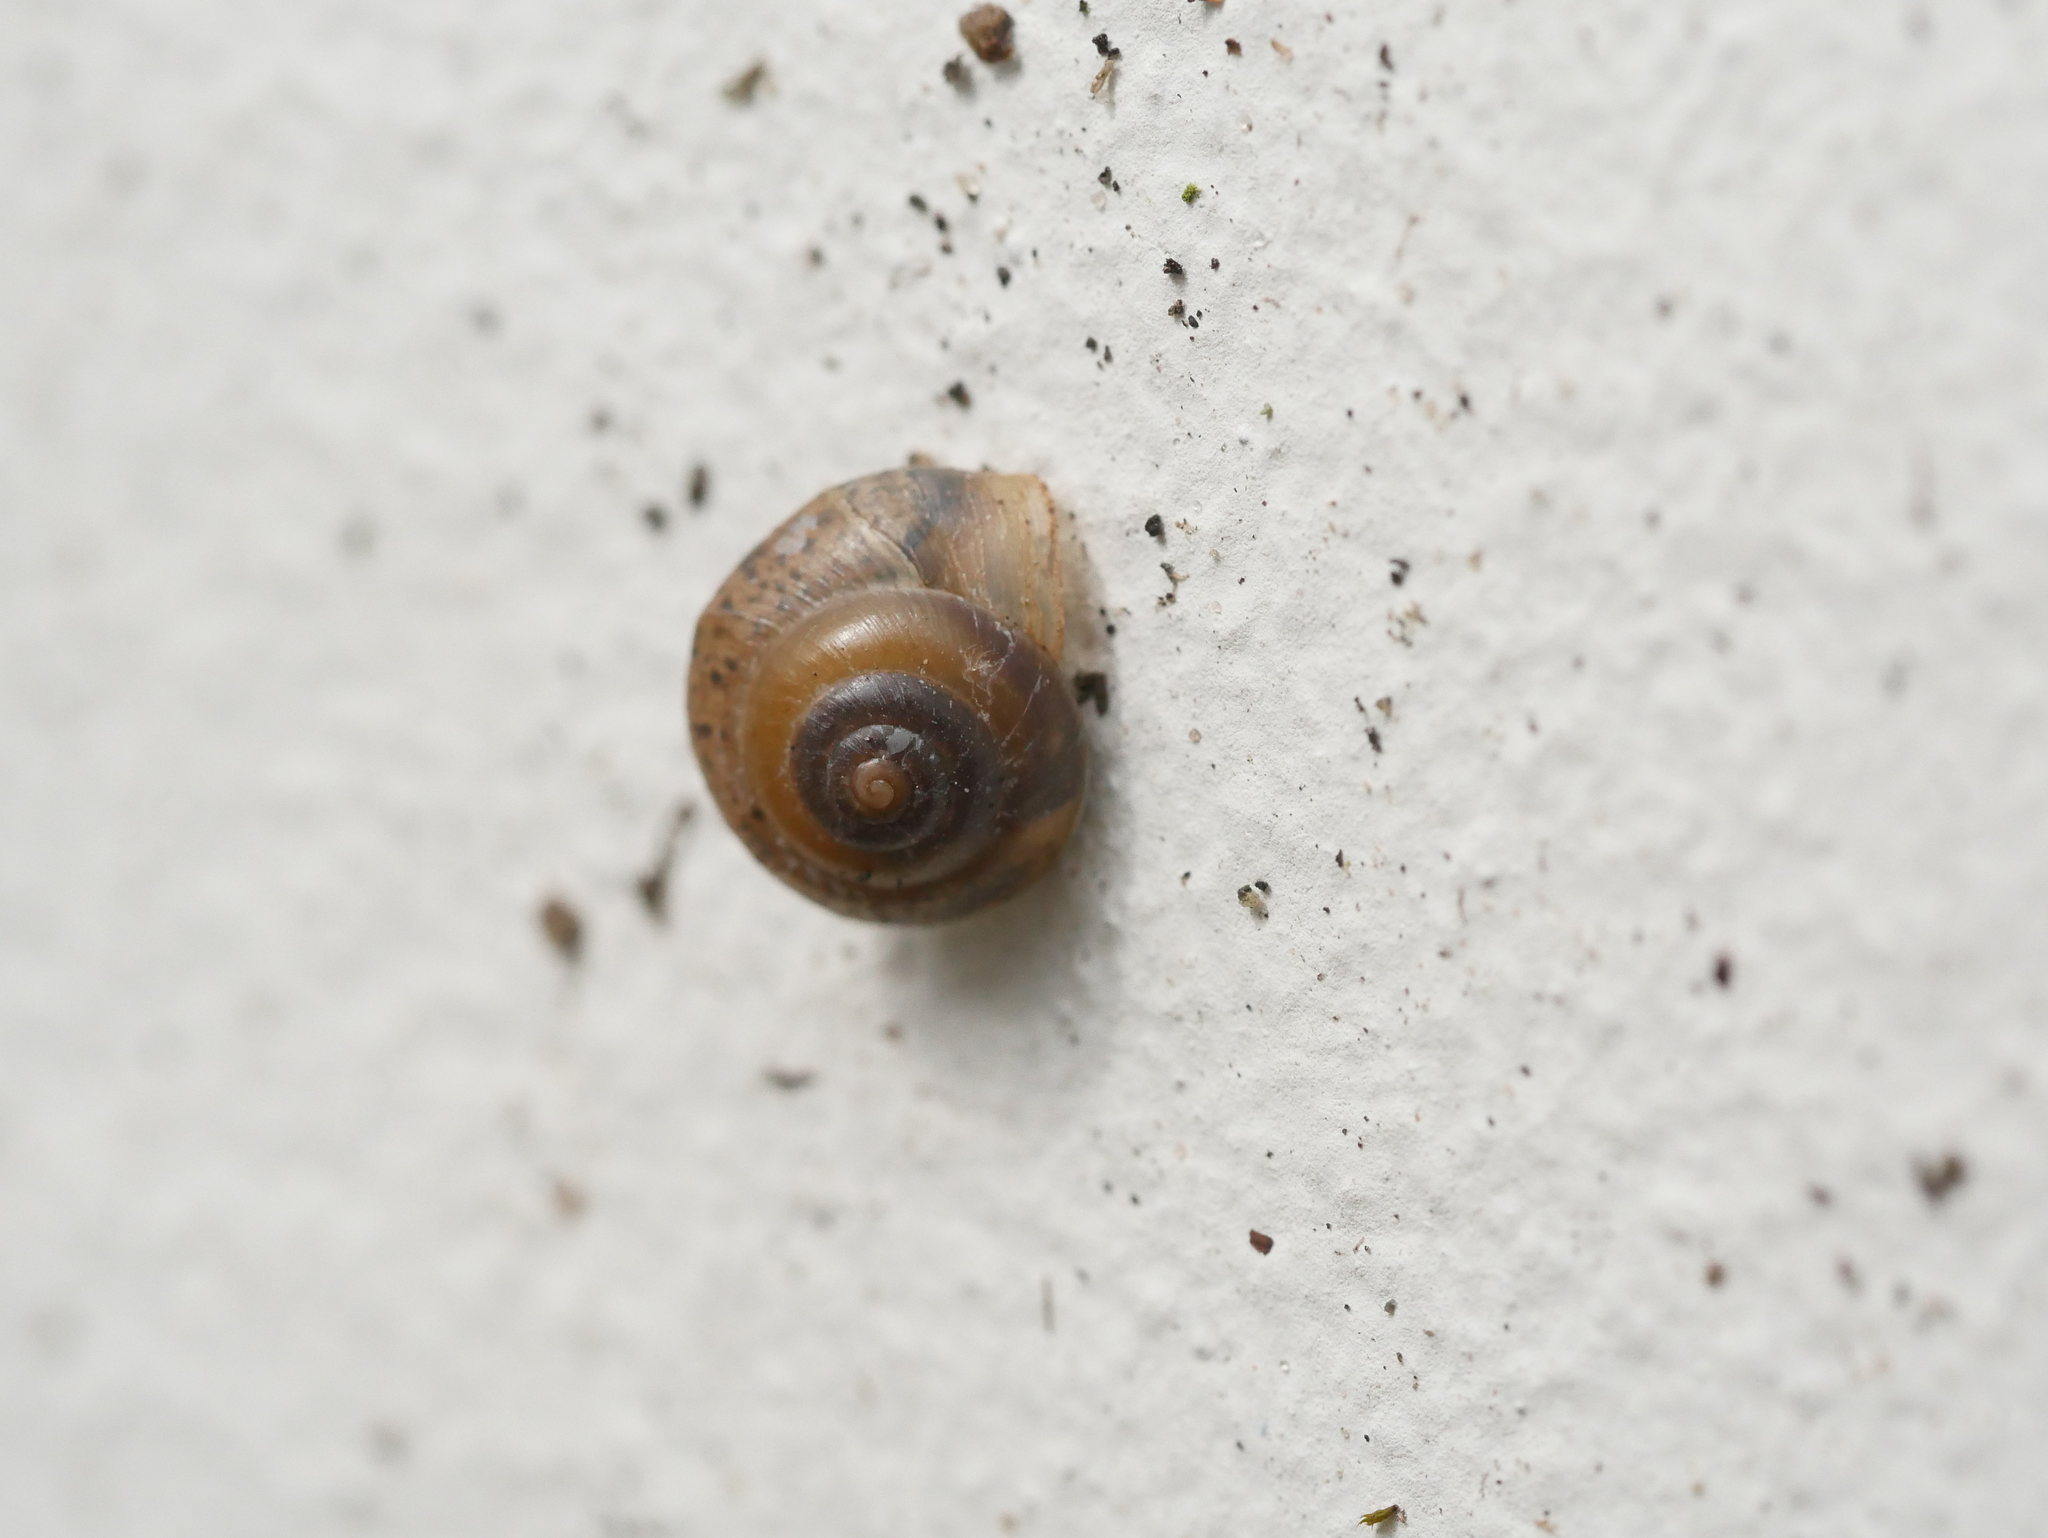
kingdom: Animalia
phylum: Mollusca
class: Gastropoda
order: Stylommatophora
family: Hygromiidae
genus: Hygromia
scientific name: Hygromia cinctella
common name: Girdled snail
